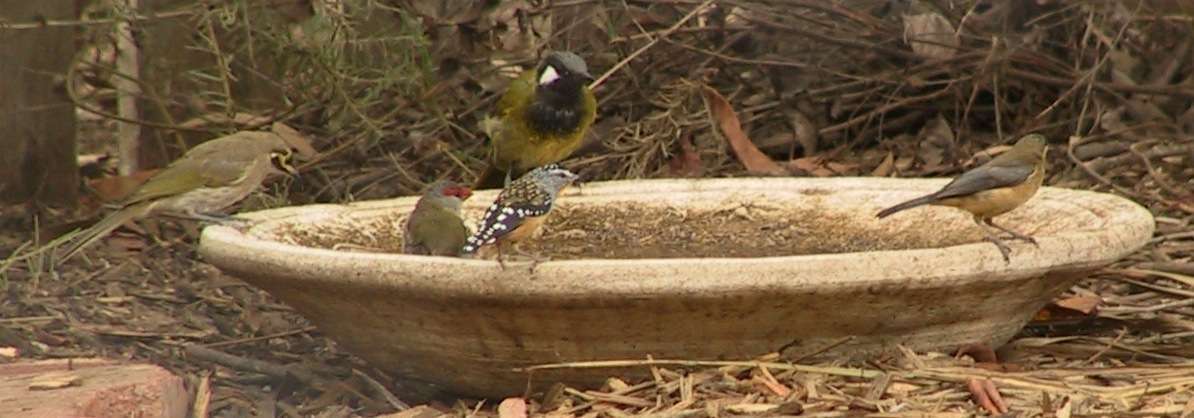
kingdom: Animalia
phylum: Chordata
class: Aves
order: Passeriformes
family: Pardalotidae
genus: Pardalotus
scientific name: Pardalotus punctatus
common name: Spotted pardalote
